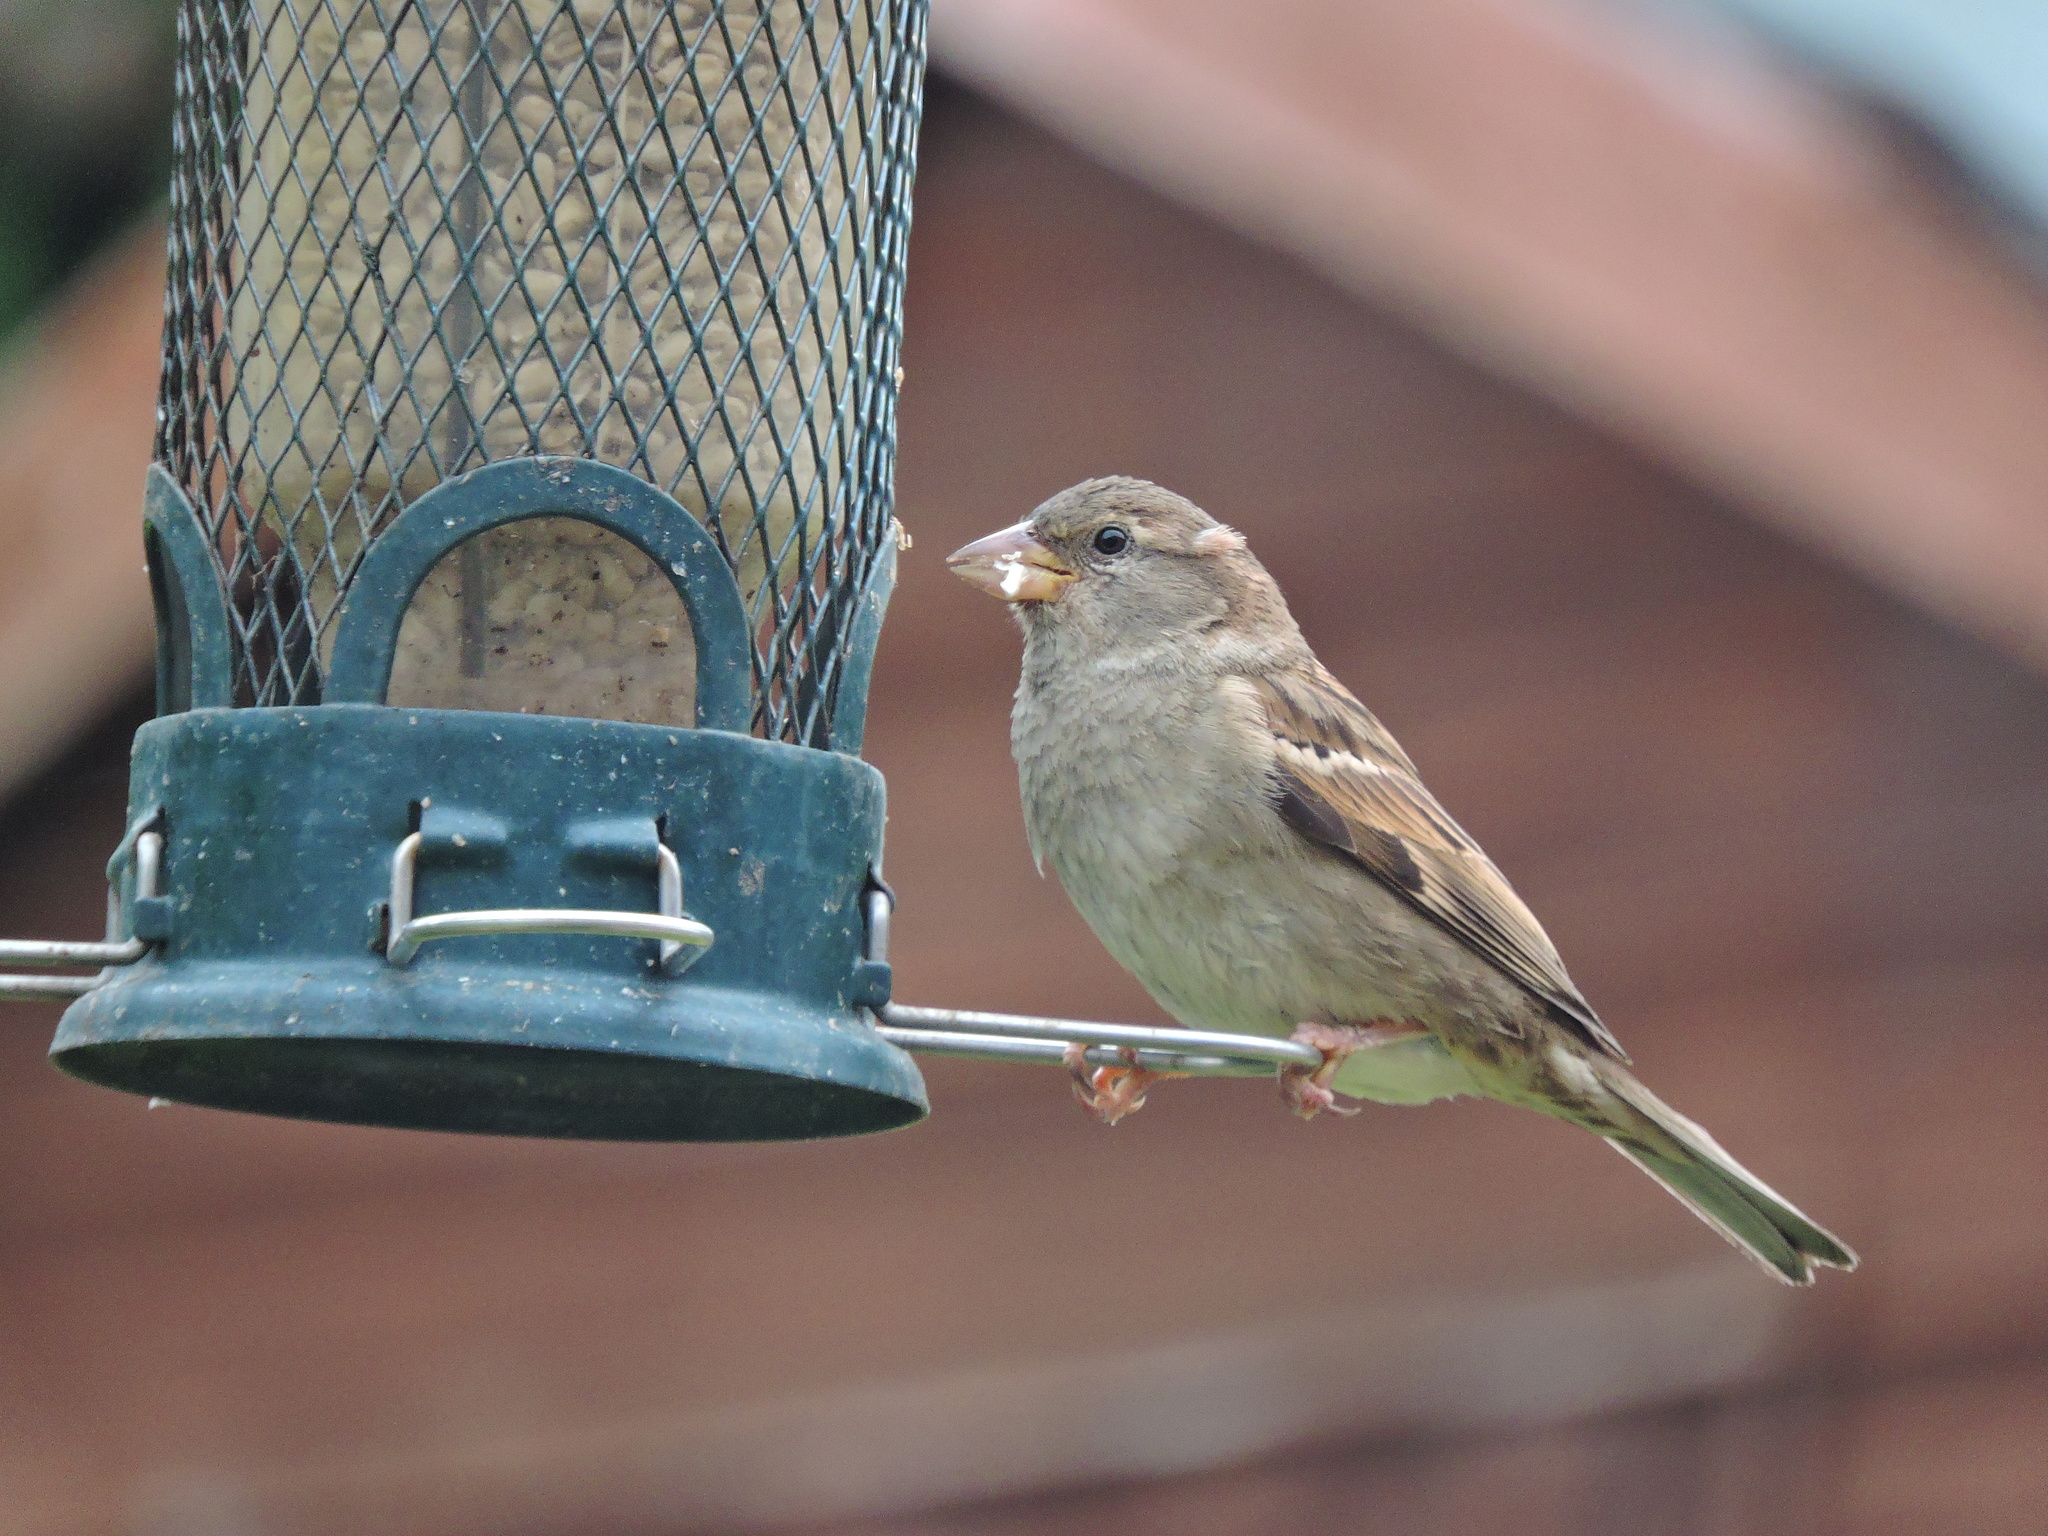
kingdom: Animalia
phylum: Chordata
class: Aves
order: Passeriformes
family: Passeridae
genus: Passer
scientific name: Passer domesticus
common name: House sparrow
